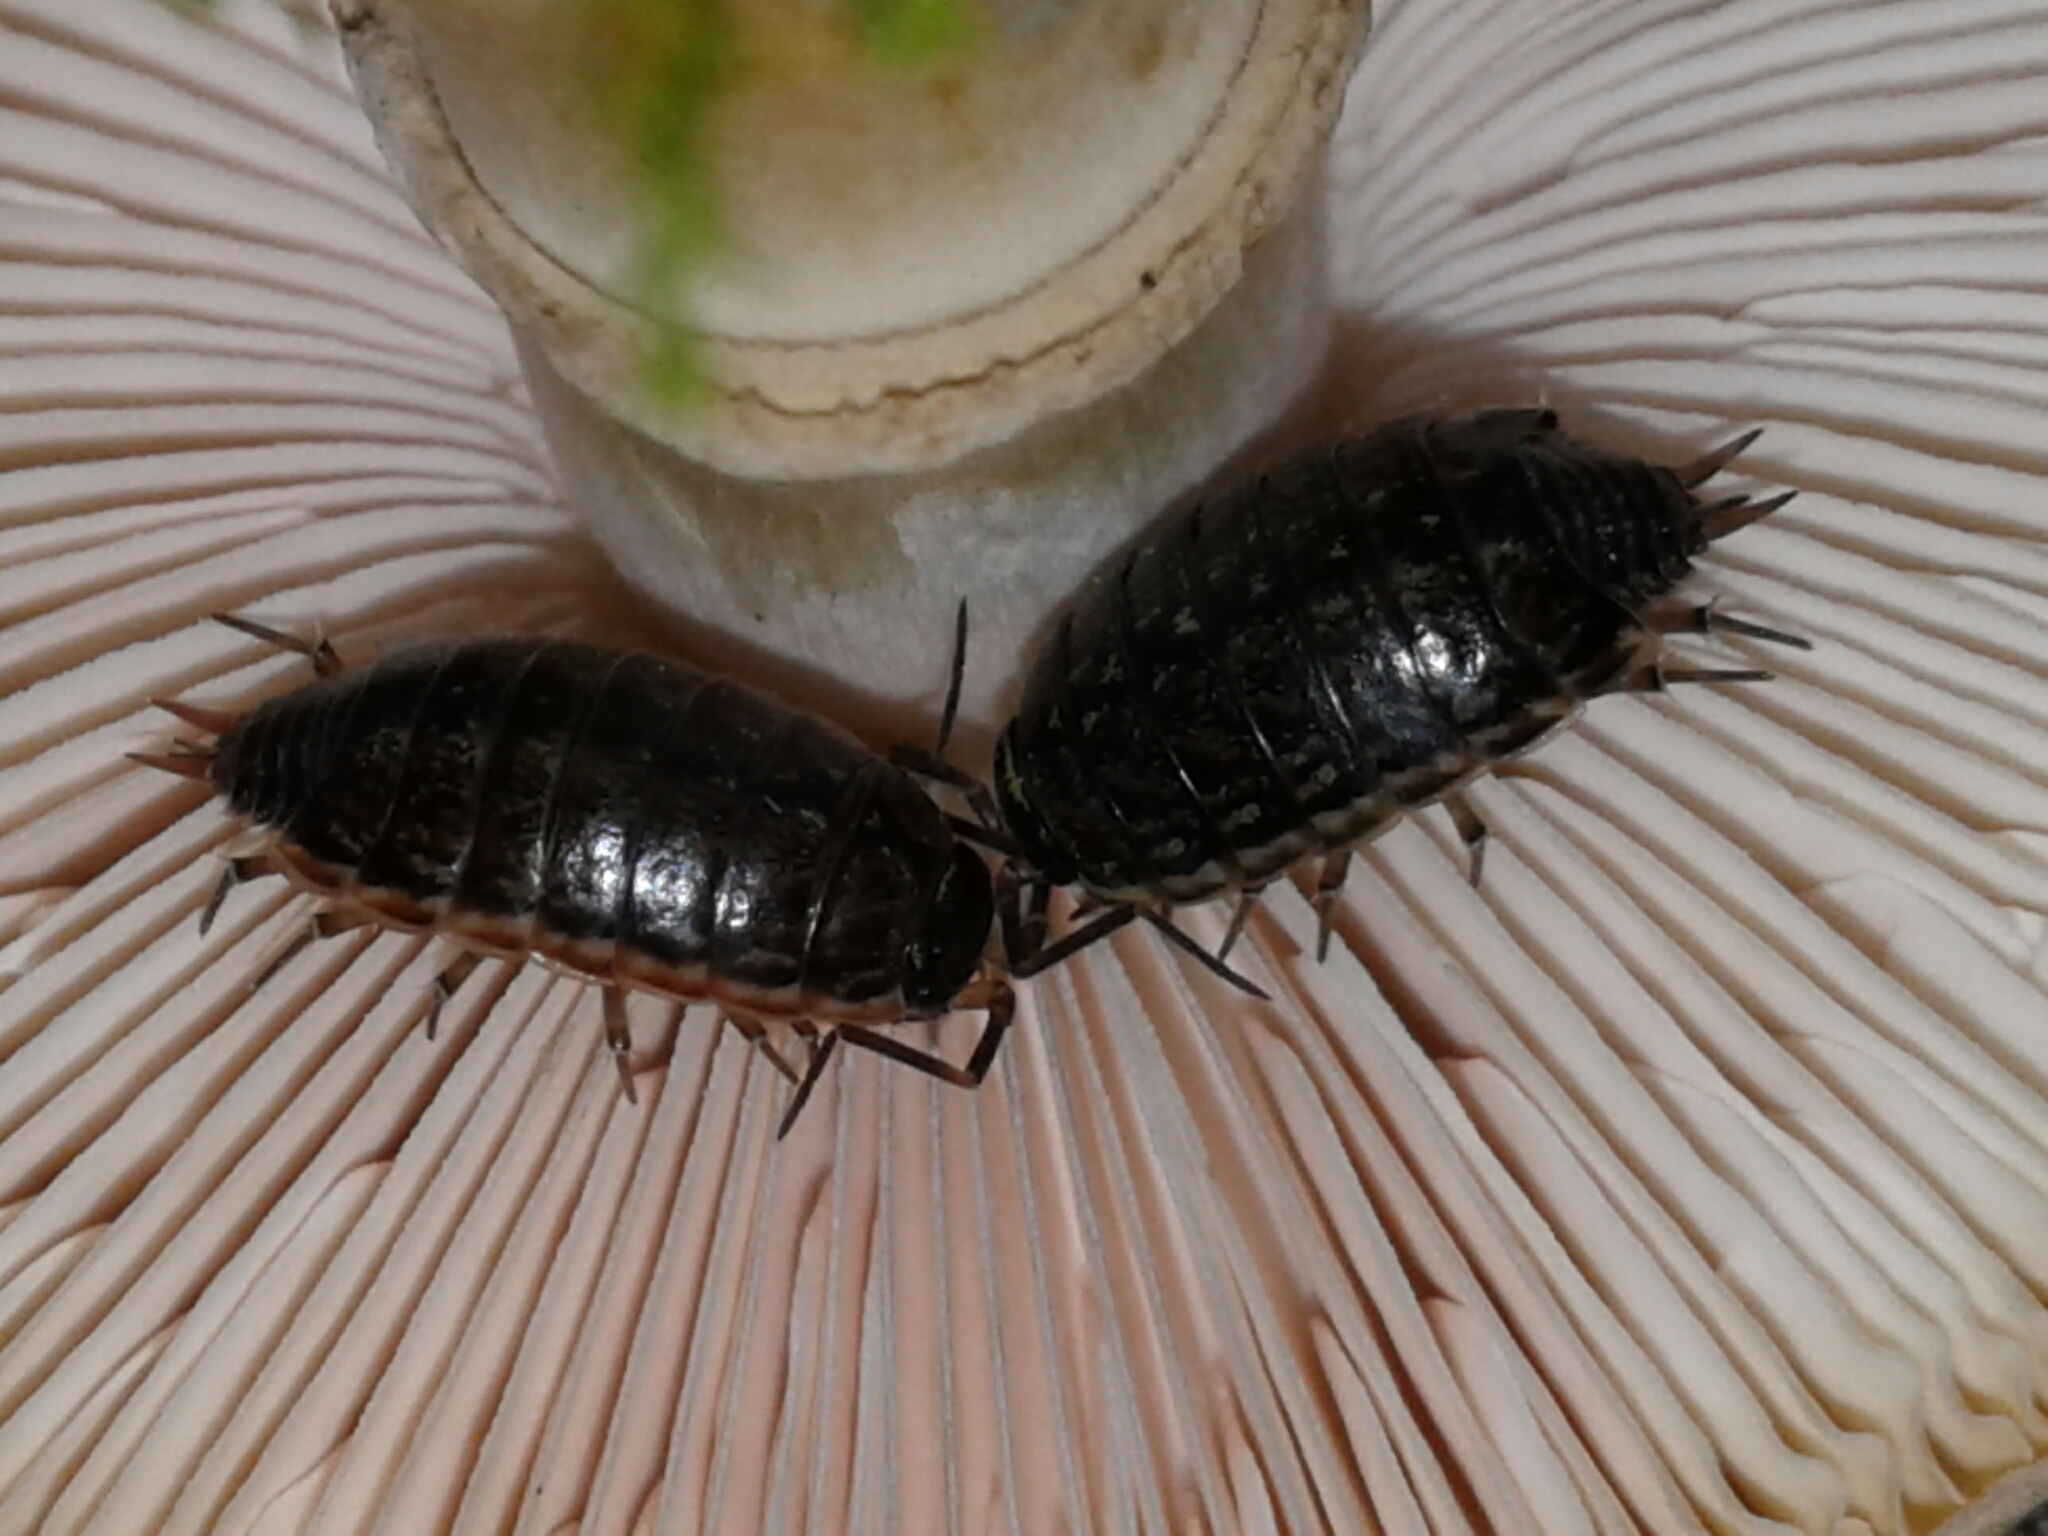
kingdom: Animalia
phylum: Arthropoda
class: Malacostraca
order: Isopoda
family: Philosciidae
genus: Philoscia
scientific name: Philoscia muscorum
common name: Common striped woodlouse
